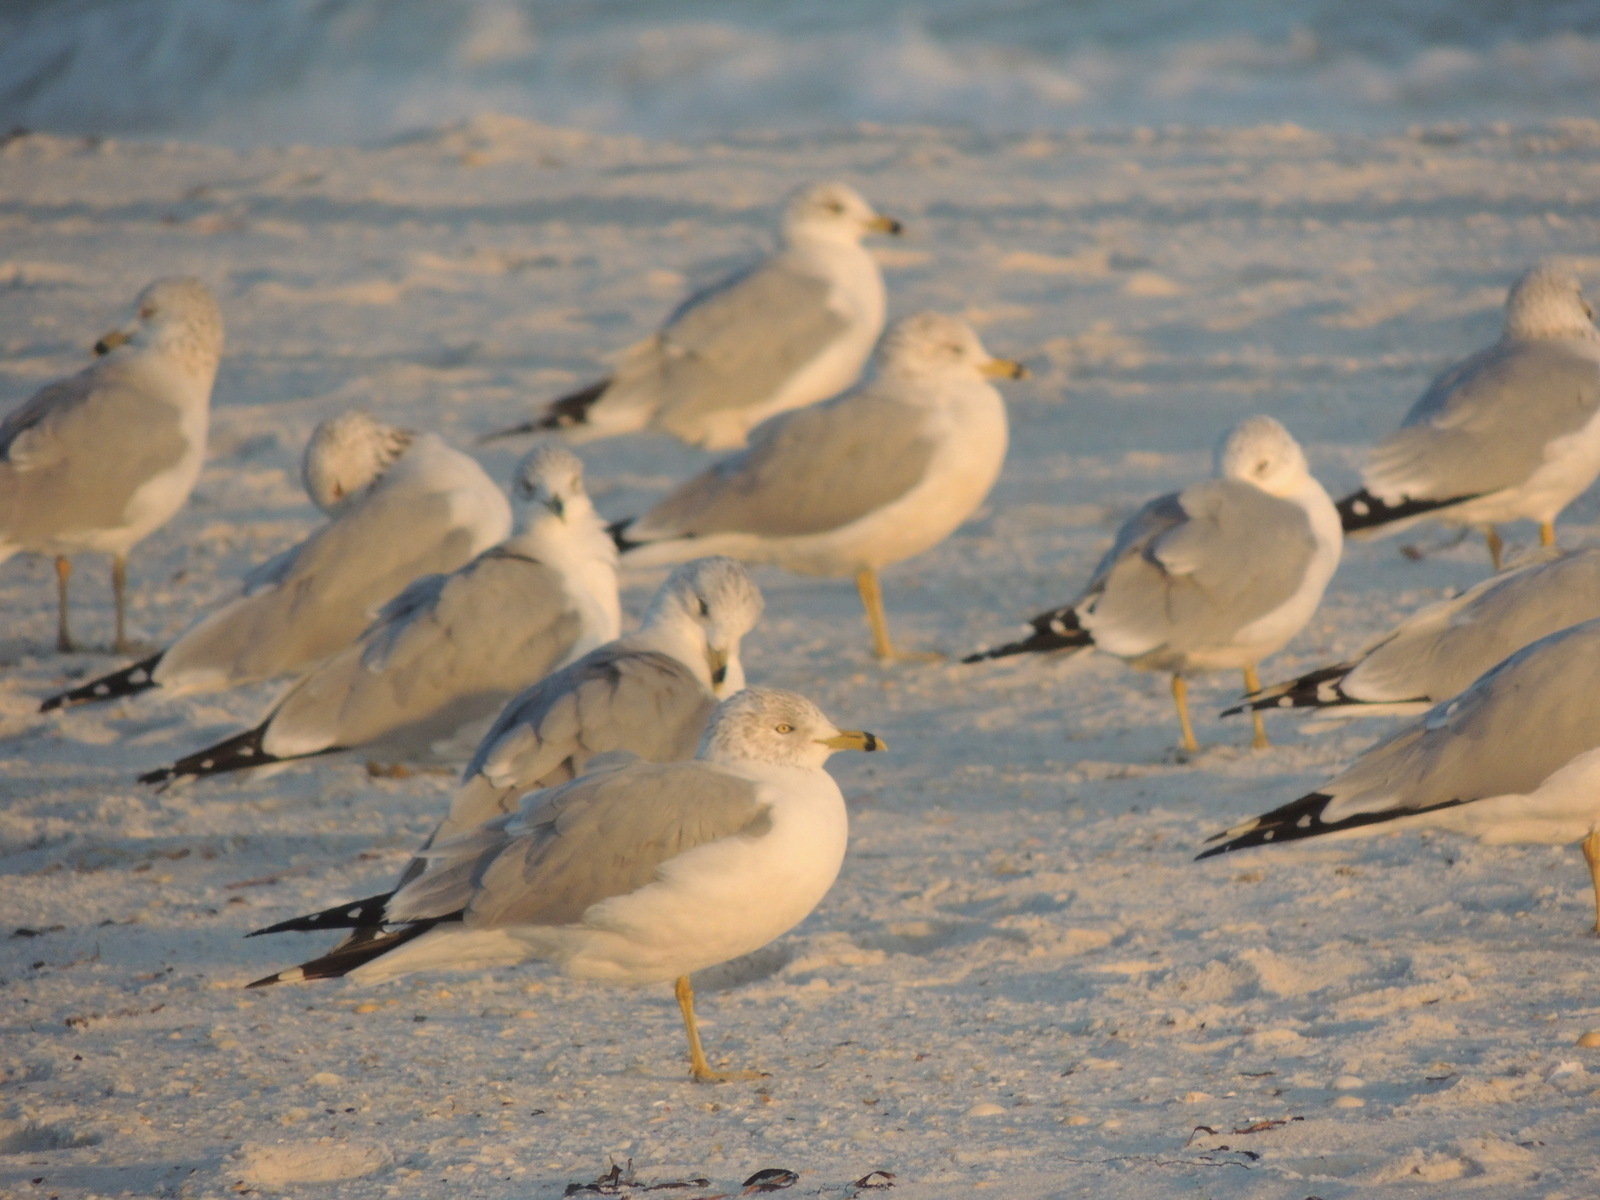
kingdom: Animalia
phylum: Chordata
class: Aves
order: Charadriiformes
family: Laridae
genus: Larus
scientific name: Larus delawarensis
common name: Ring-billed gull
